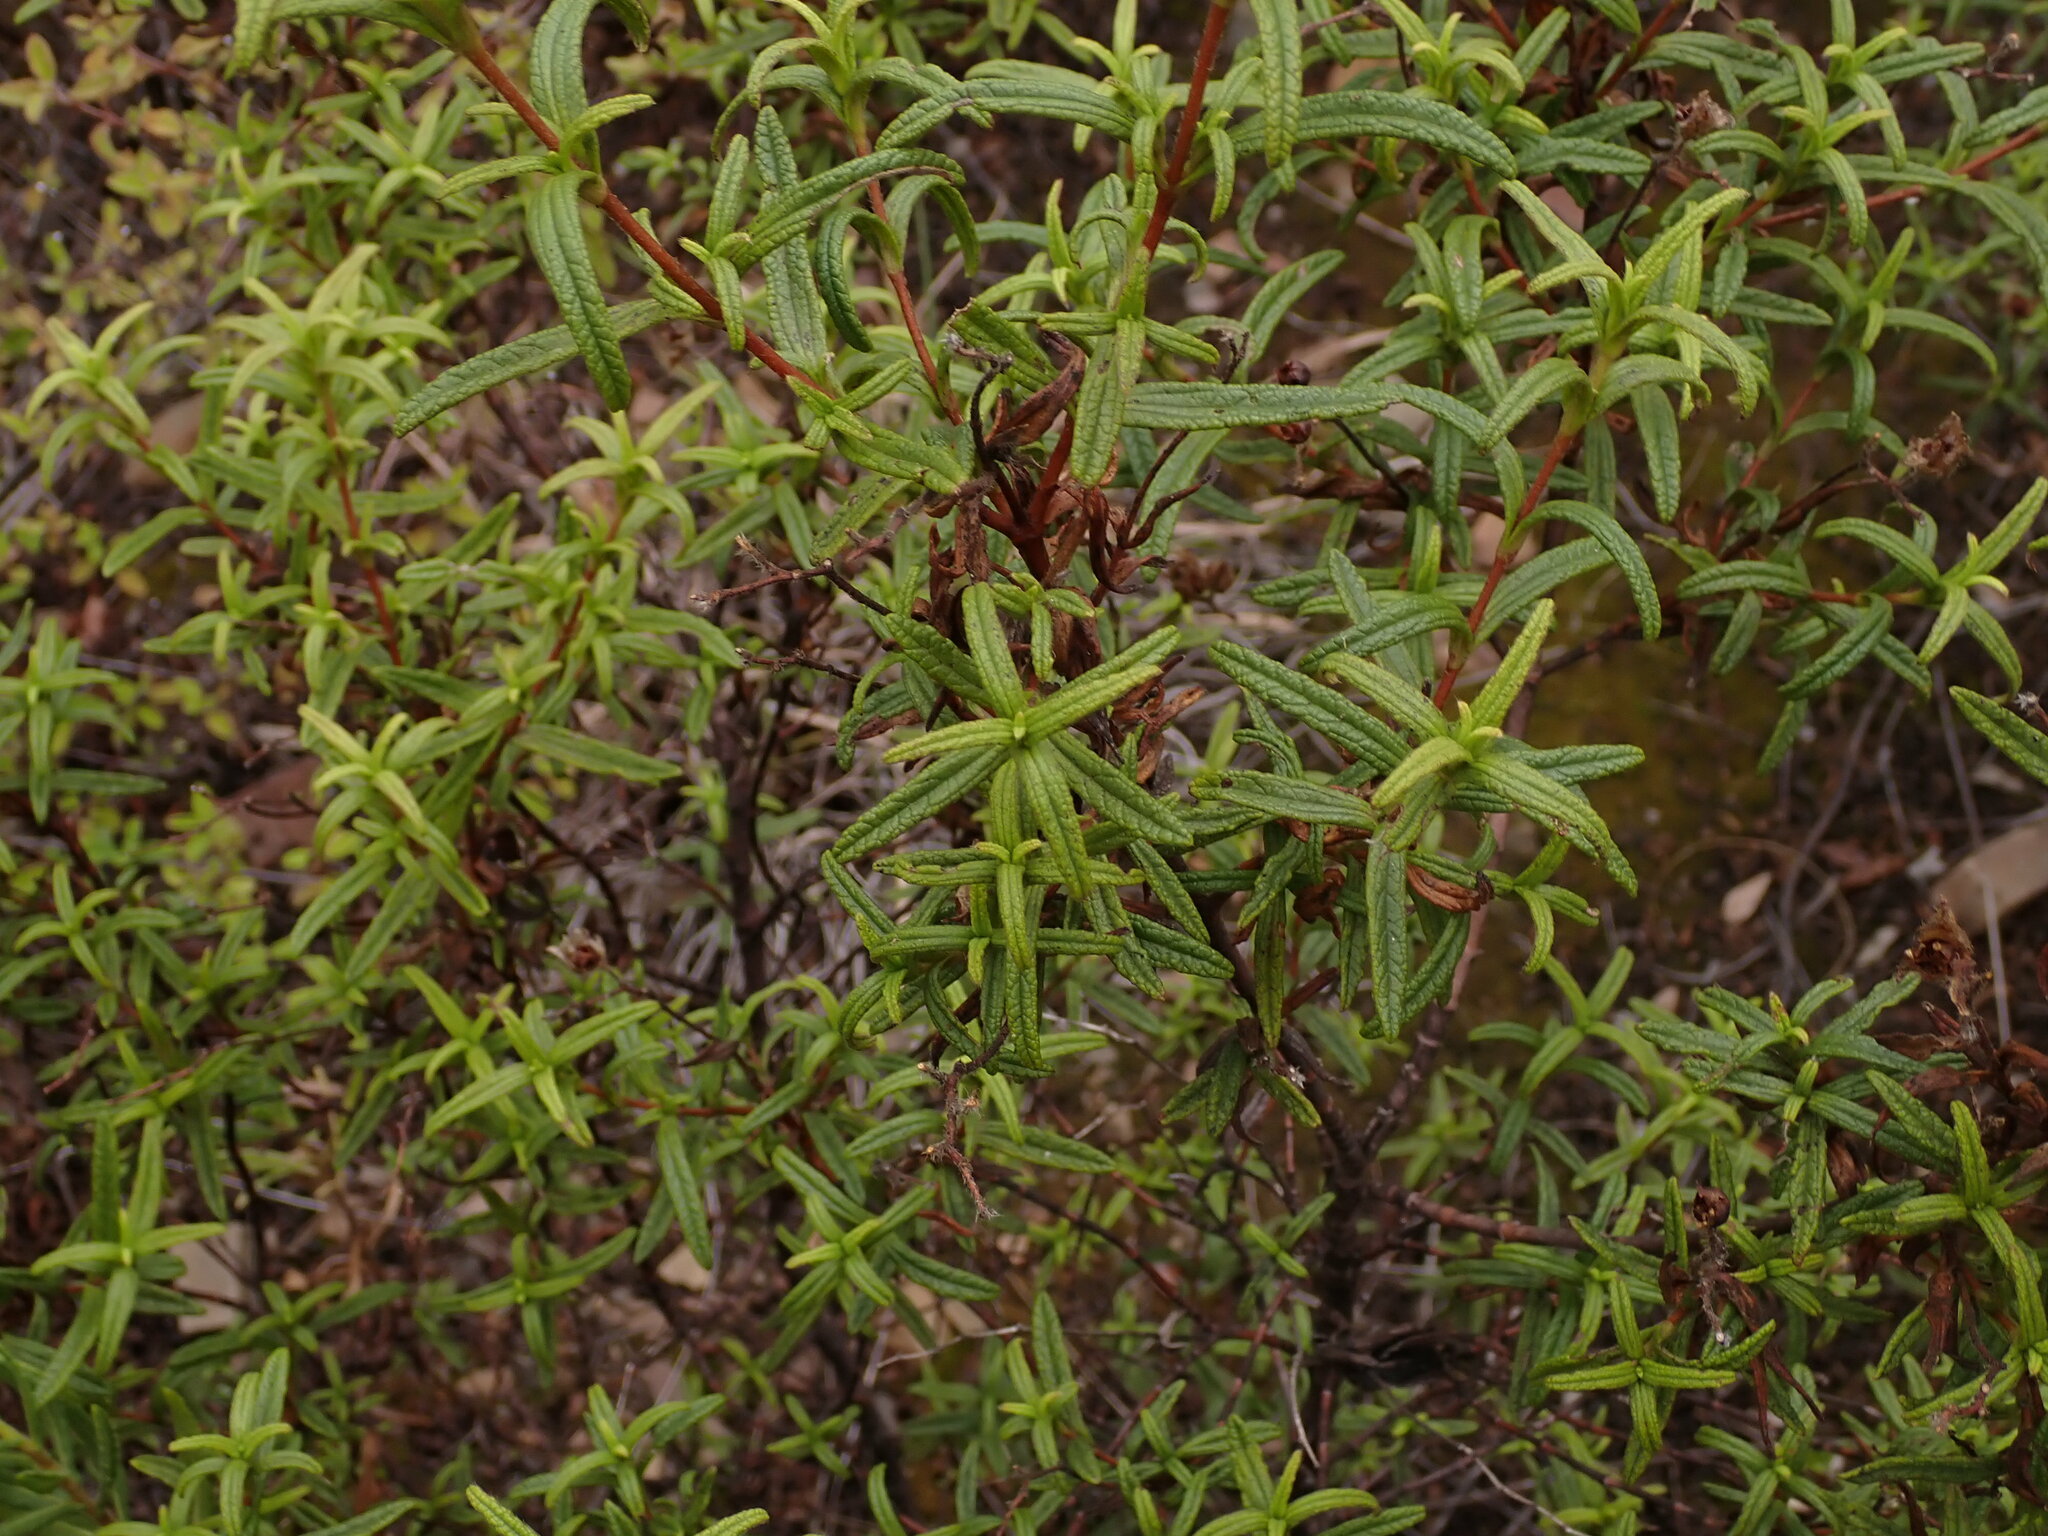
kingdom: Plantae
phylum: Tracheophyta
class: Magnoliopsida
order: Malvales
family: Cistaceae
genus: Cistus
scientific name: Cistus monspeliensis
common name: Montpelier cistus
